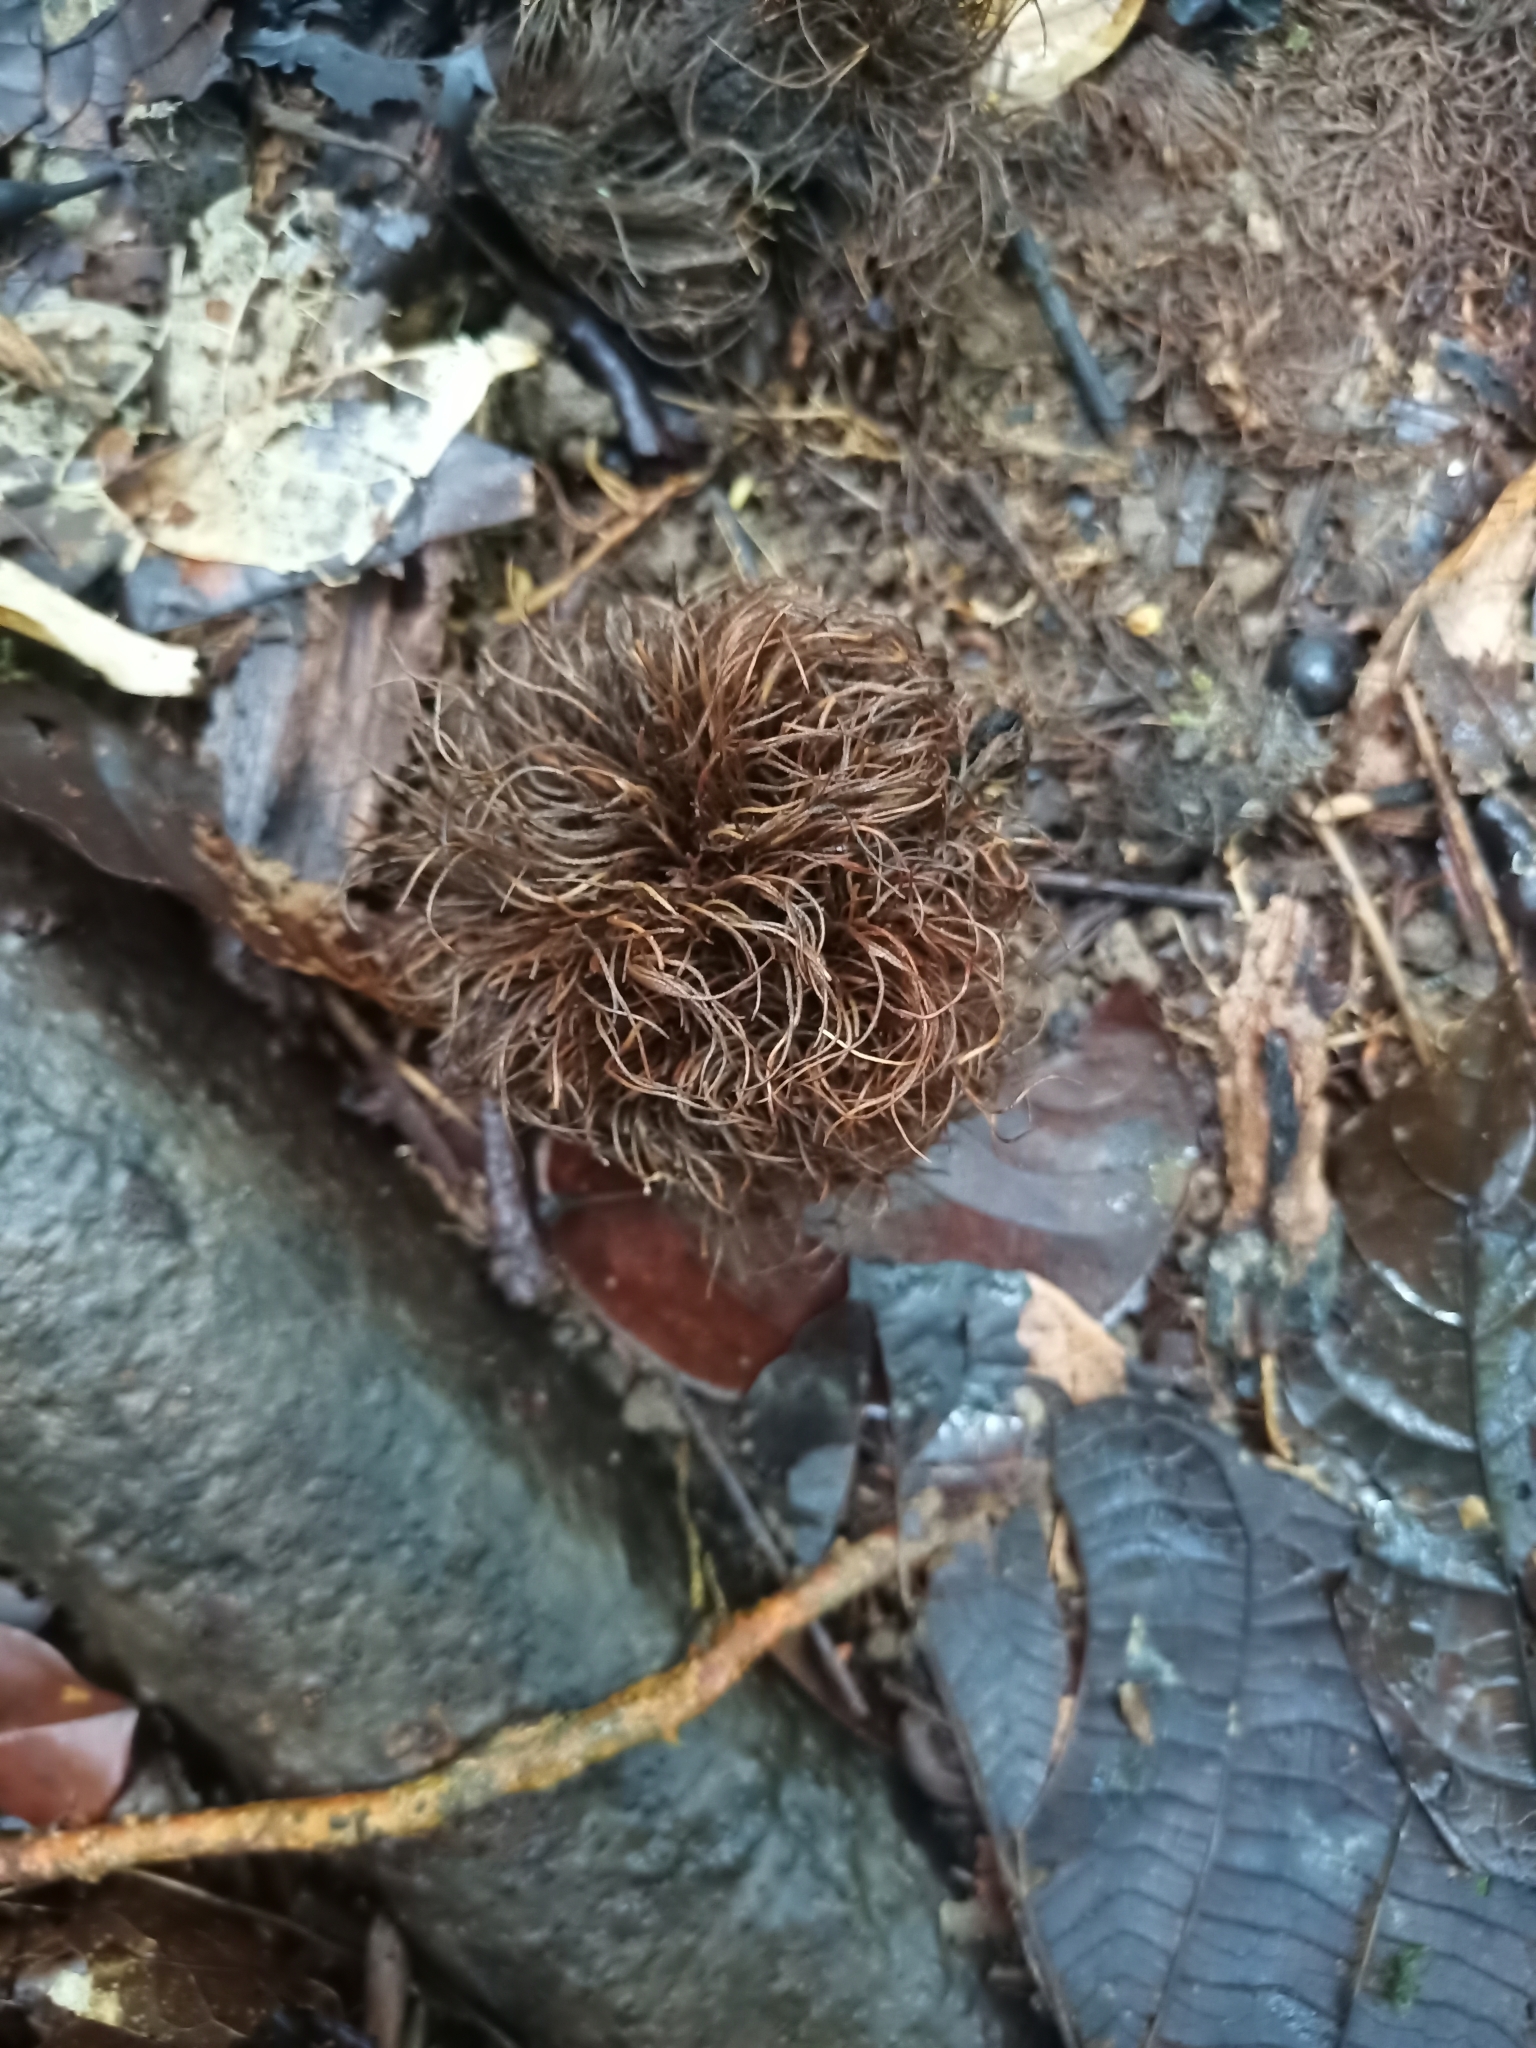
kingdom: Plantae
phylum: Tracheophyta
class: Magnoliopsida
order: Oxalidales
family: Elaeocarpaceae
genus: Sloanea
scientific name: Sloanea grandiflora
